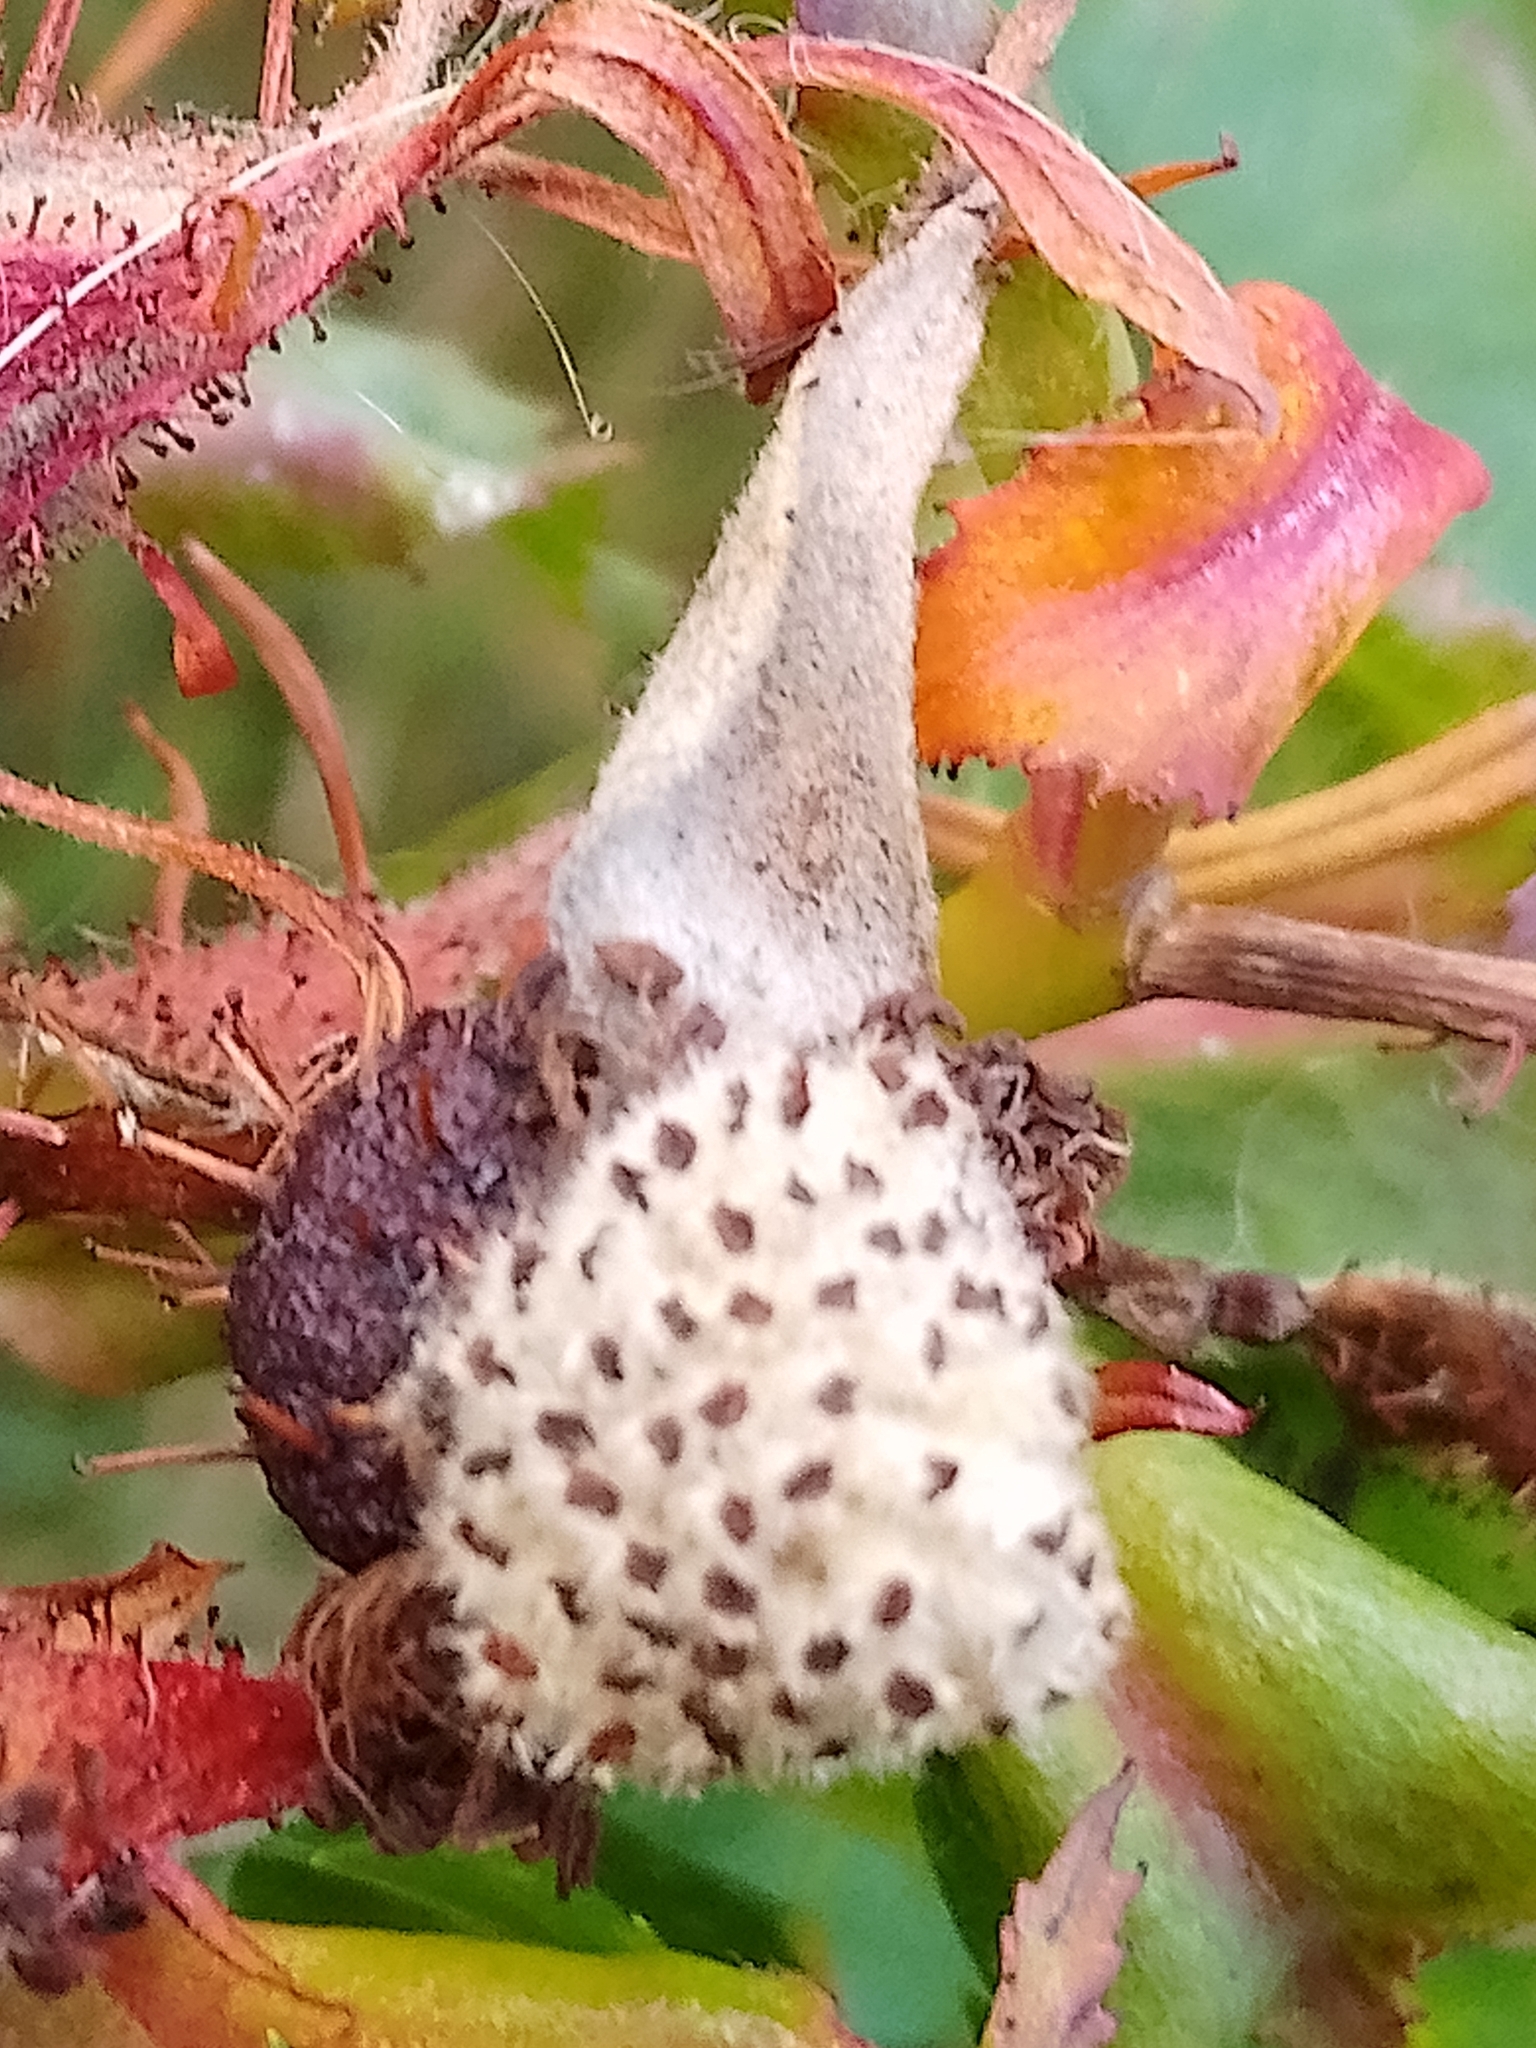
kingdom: Plantae
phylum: Tracheophyta
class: Magnoliopsida
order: Rosales
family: Rosaceae
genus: Rosa
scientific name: Rosa virginiana
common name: Virginian rose
